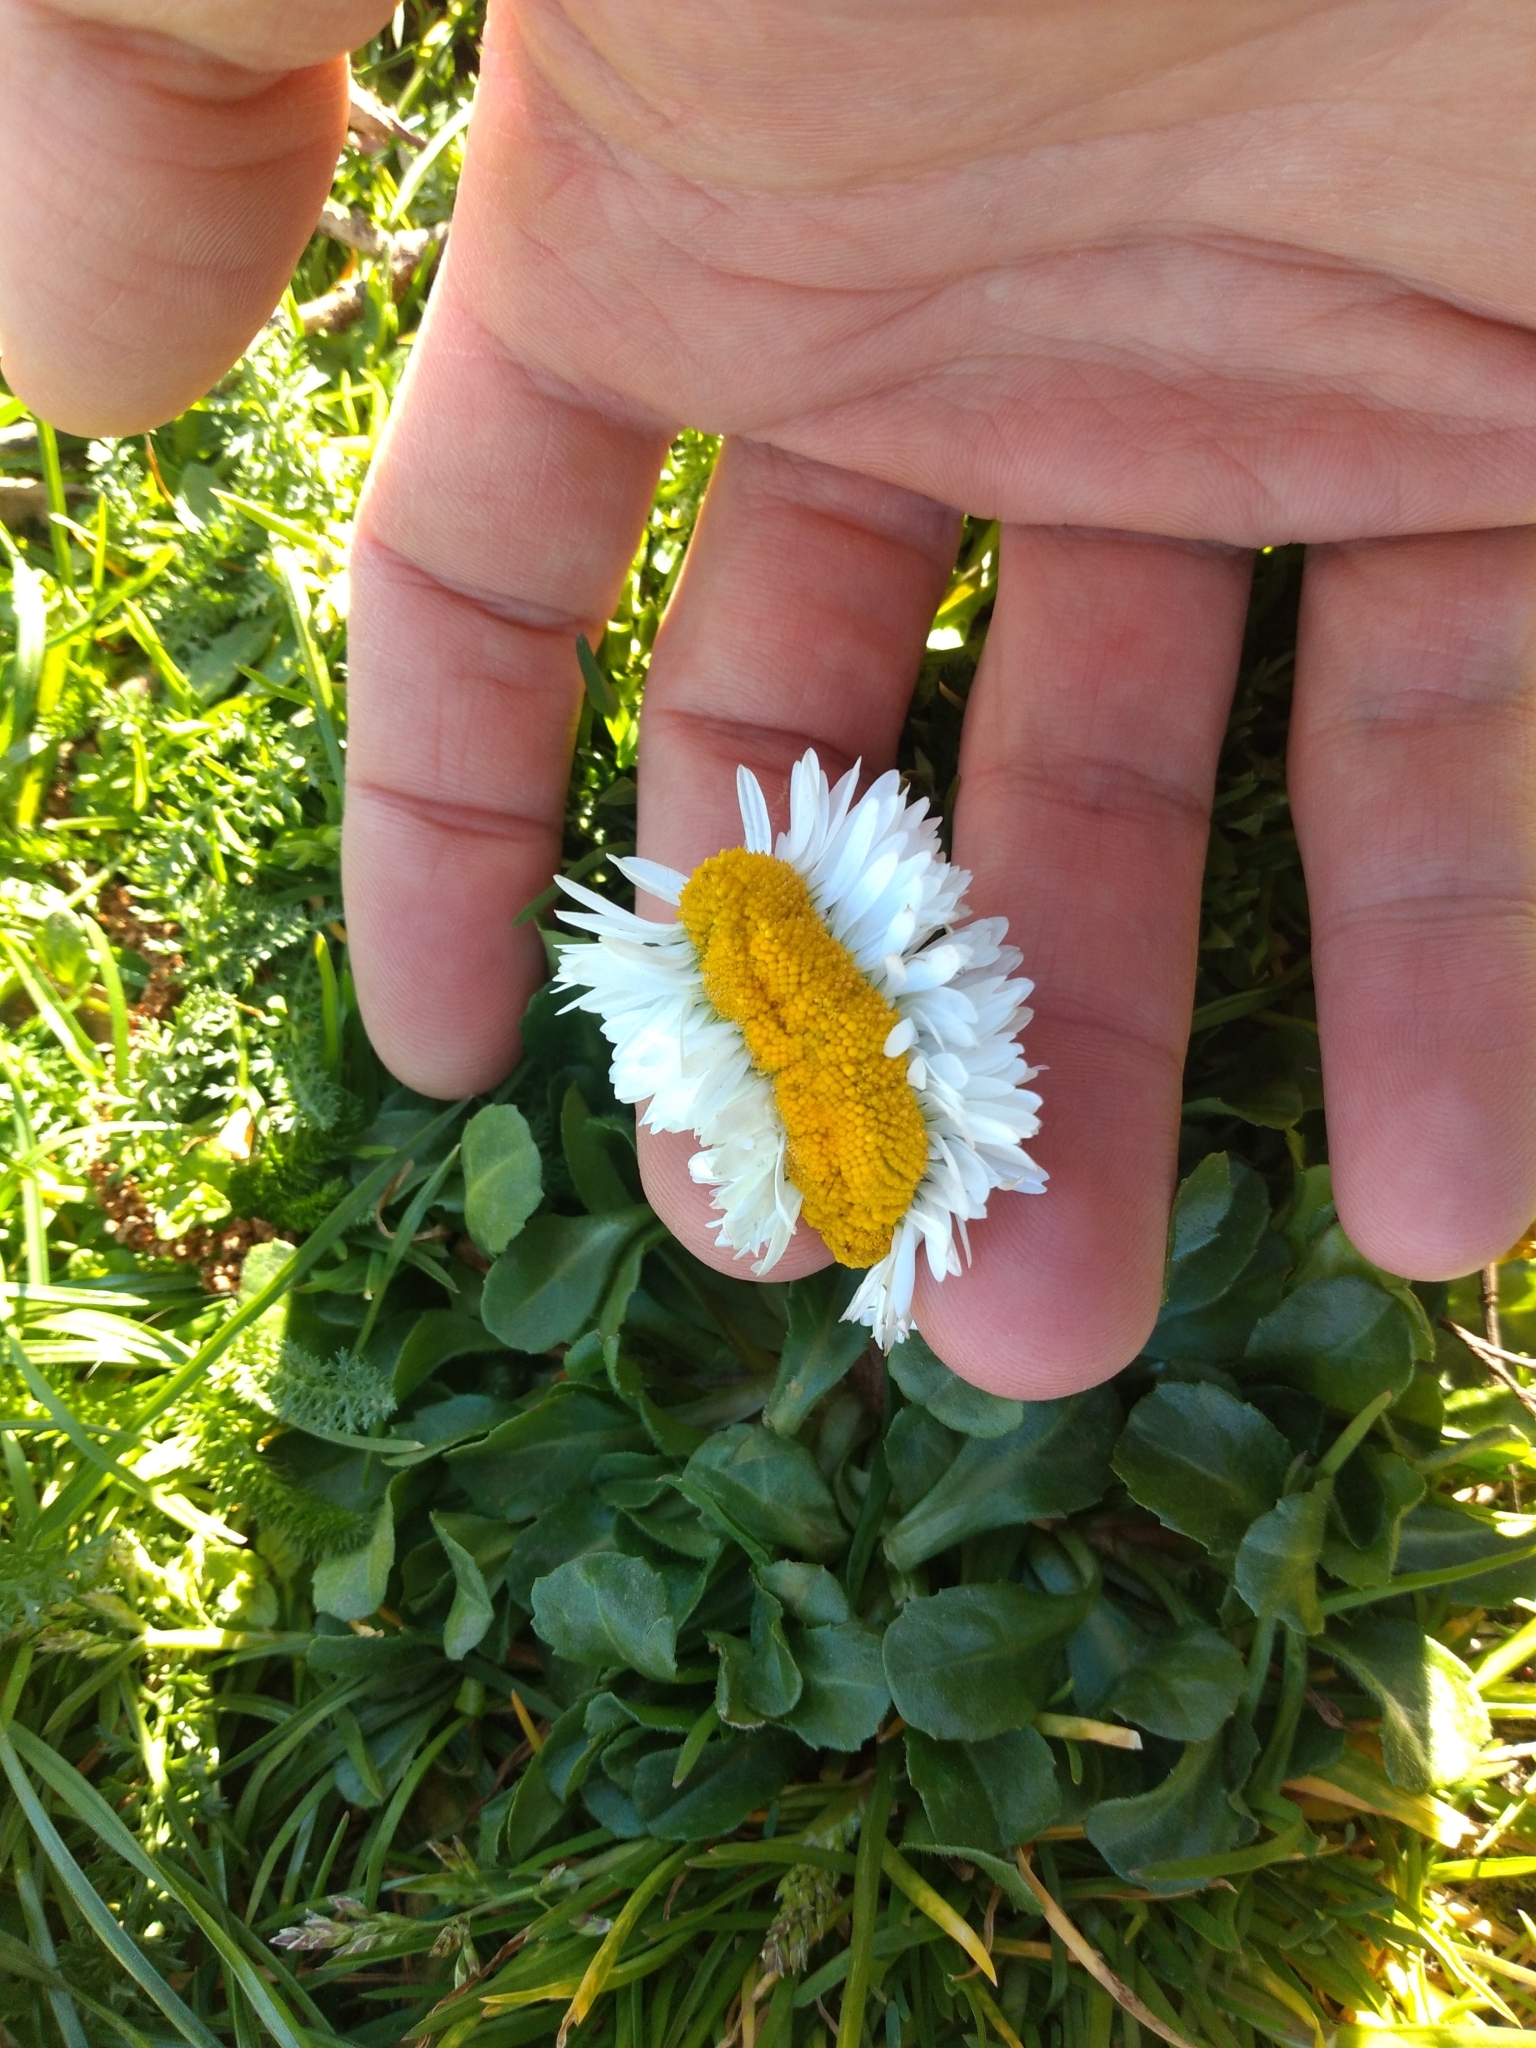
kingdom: Plantae
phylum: Tracheophyta
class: Magnoliopsida
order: Asterales
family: Asteraceae
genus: Bellis
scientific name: Bellis perennis
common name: Lawndaisy
